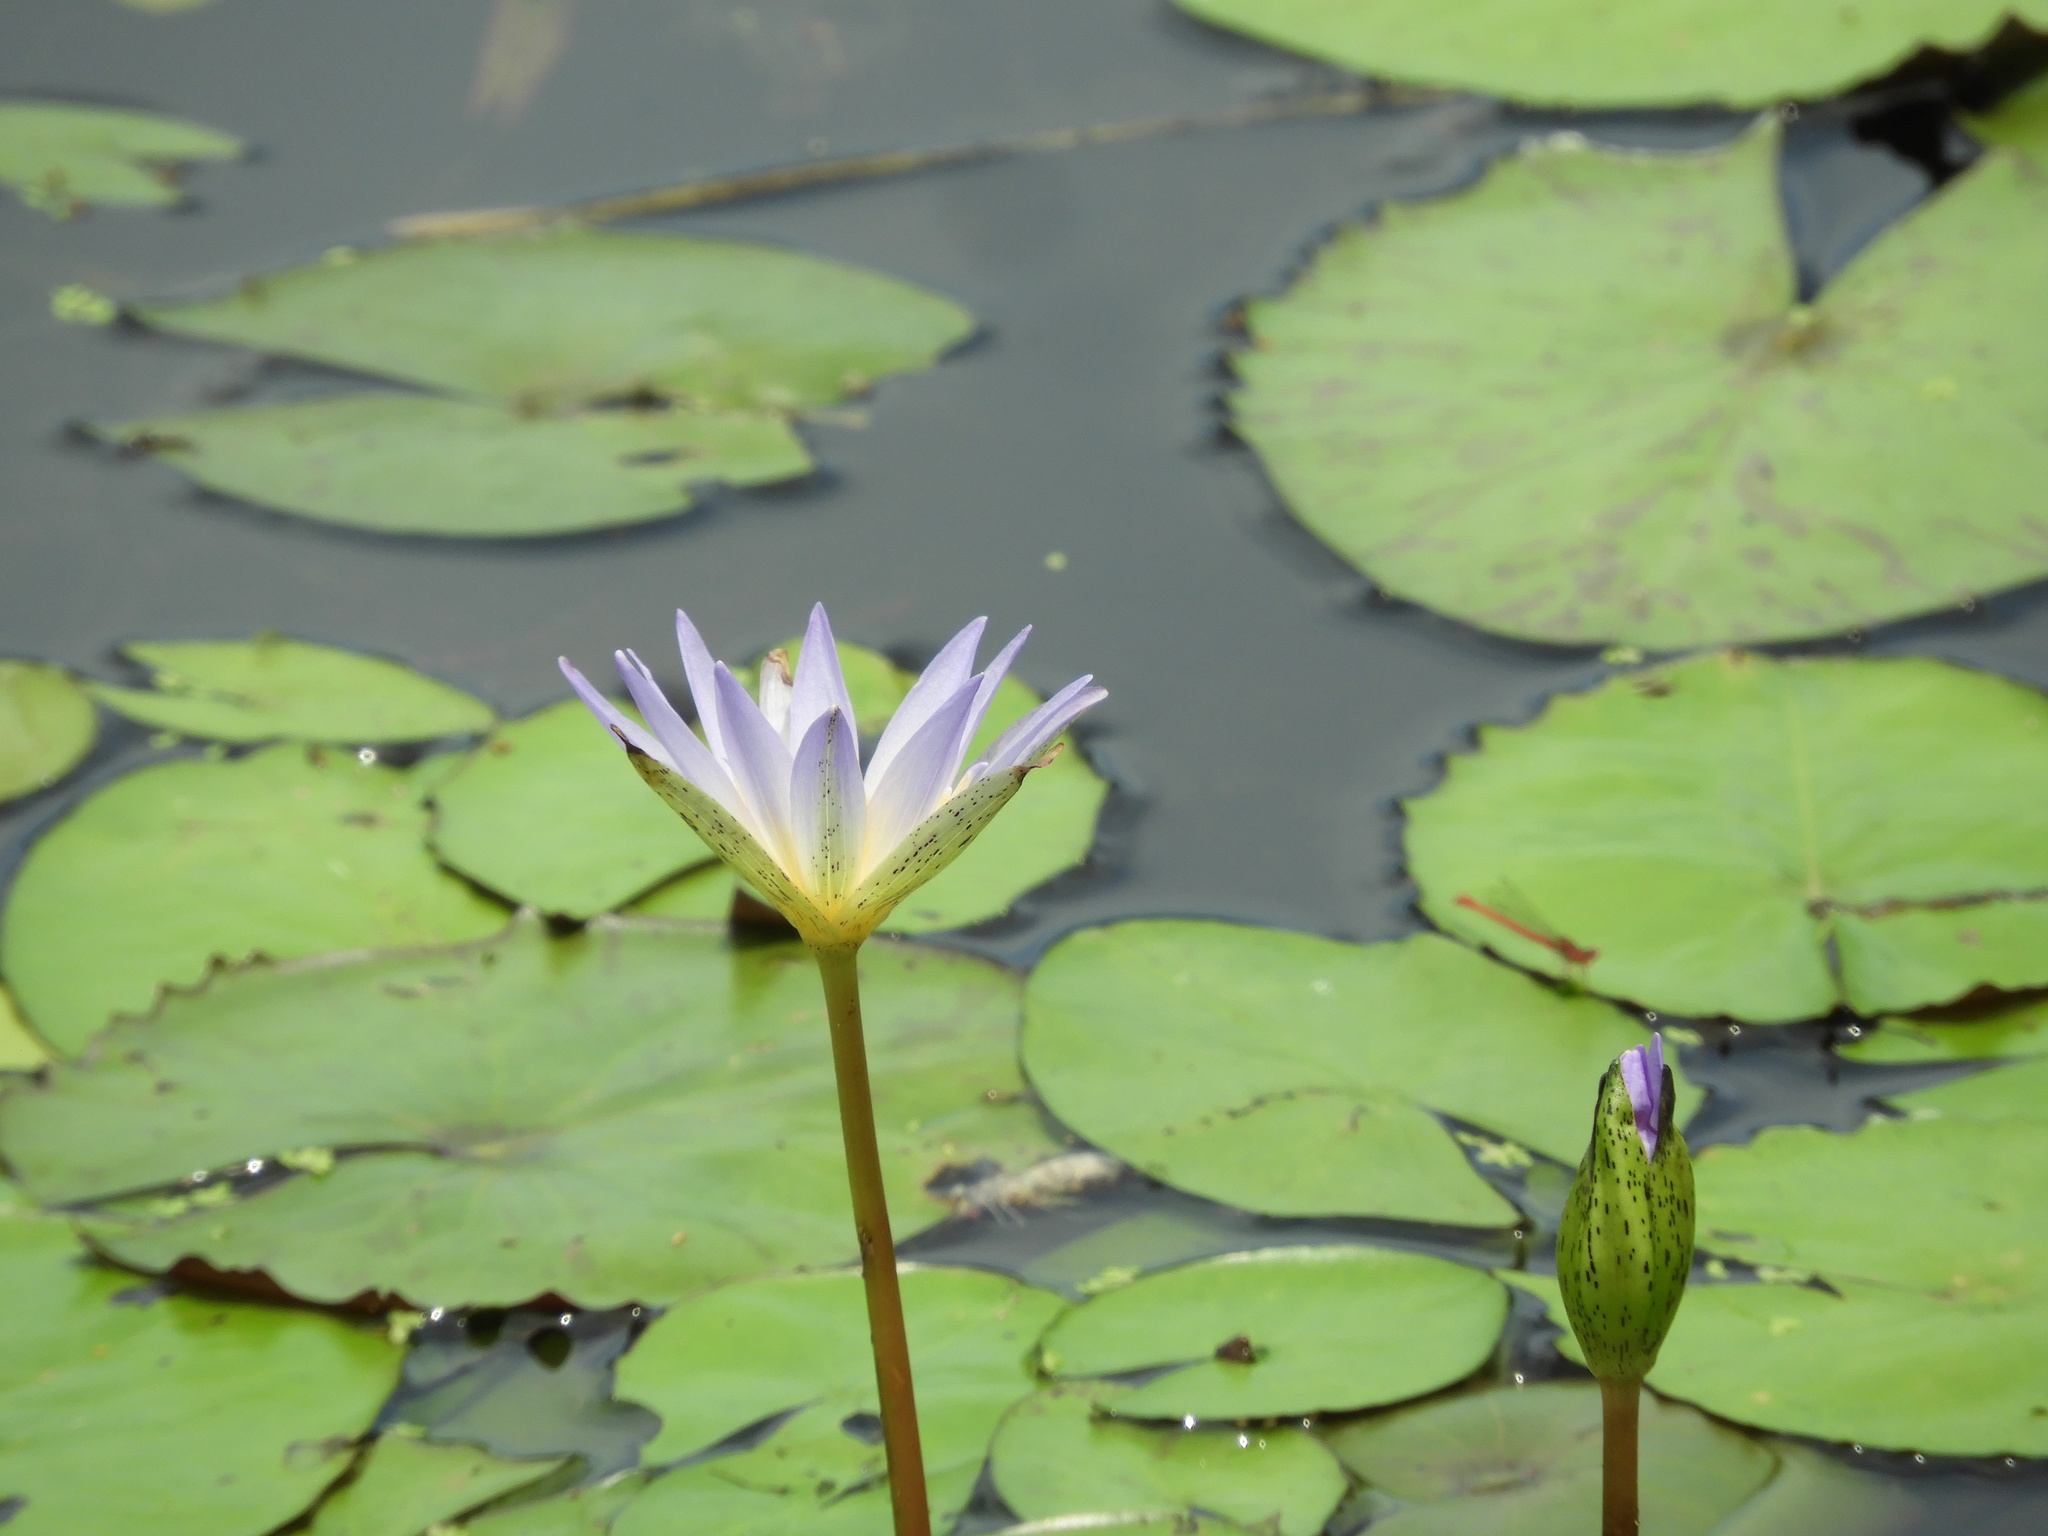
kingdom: Plantae
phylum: Tracheophyta
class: Magnoliopsida
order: Nymphaeales
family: Nymphaeaceae
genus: Nymphaea
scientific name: Nymphaea elegans
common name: Blue water-lily
